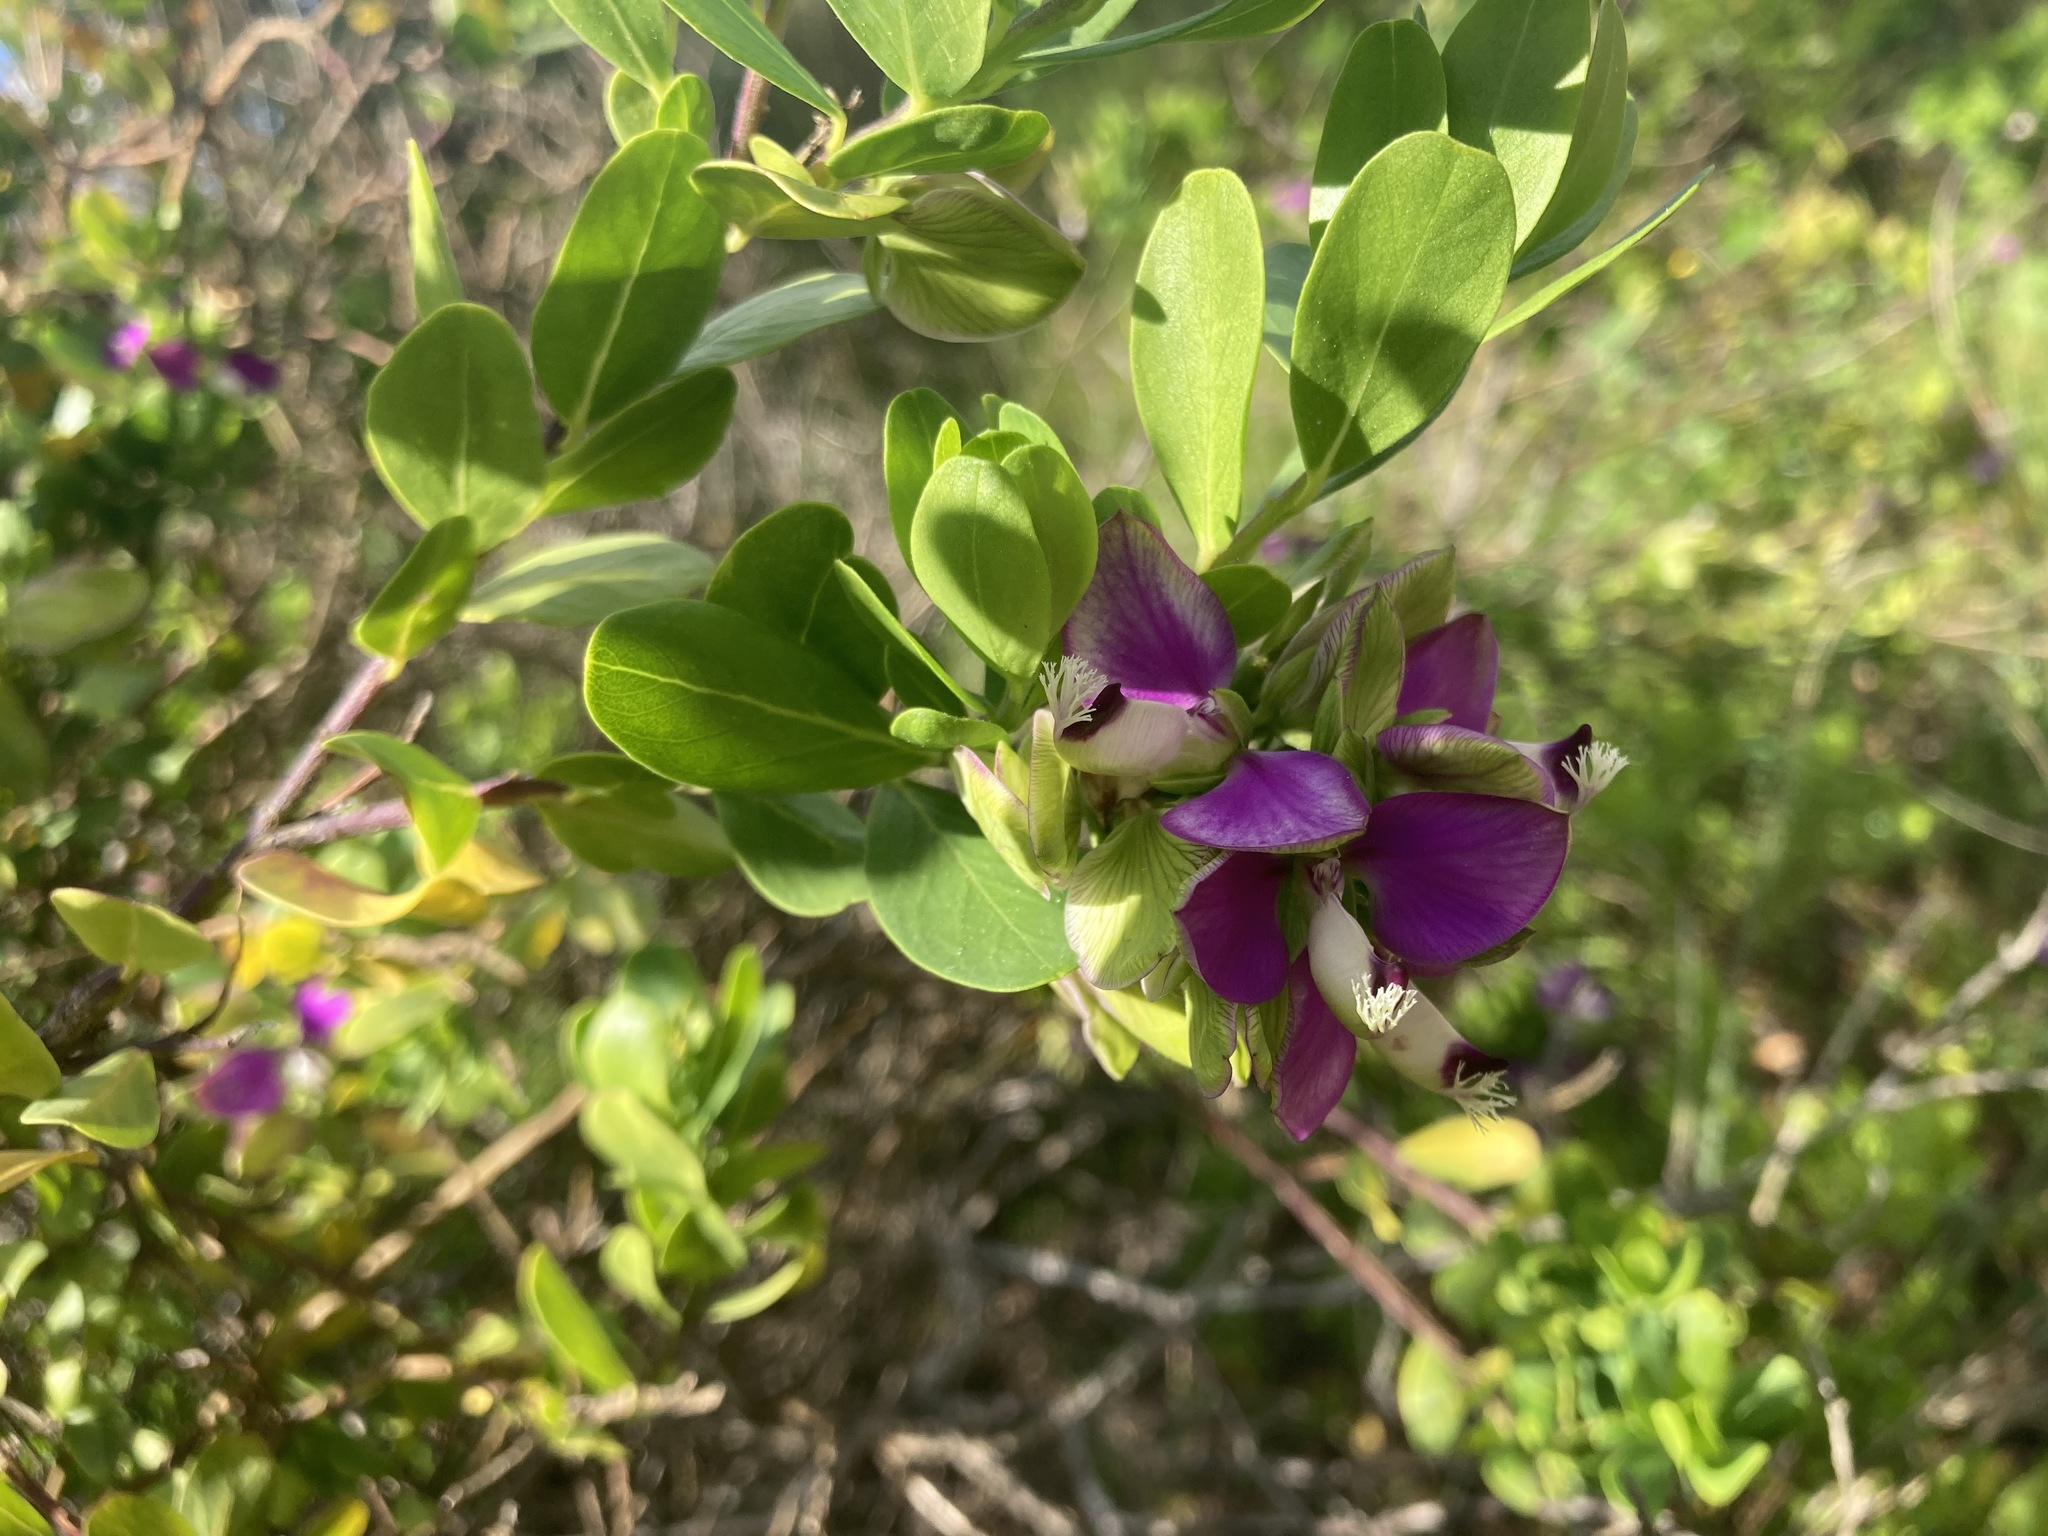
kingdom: Plantae
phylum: Tracheophyta
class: Magnoliopsida
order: Fabales
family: Polygalaceae
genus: Polygala
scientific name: Polygala myrtifolia
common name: Myrtle-leaf milkwort
